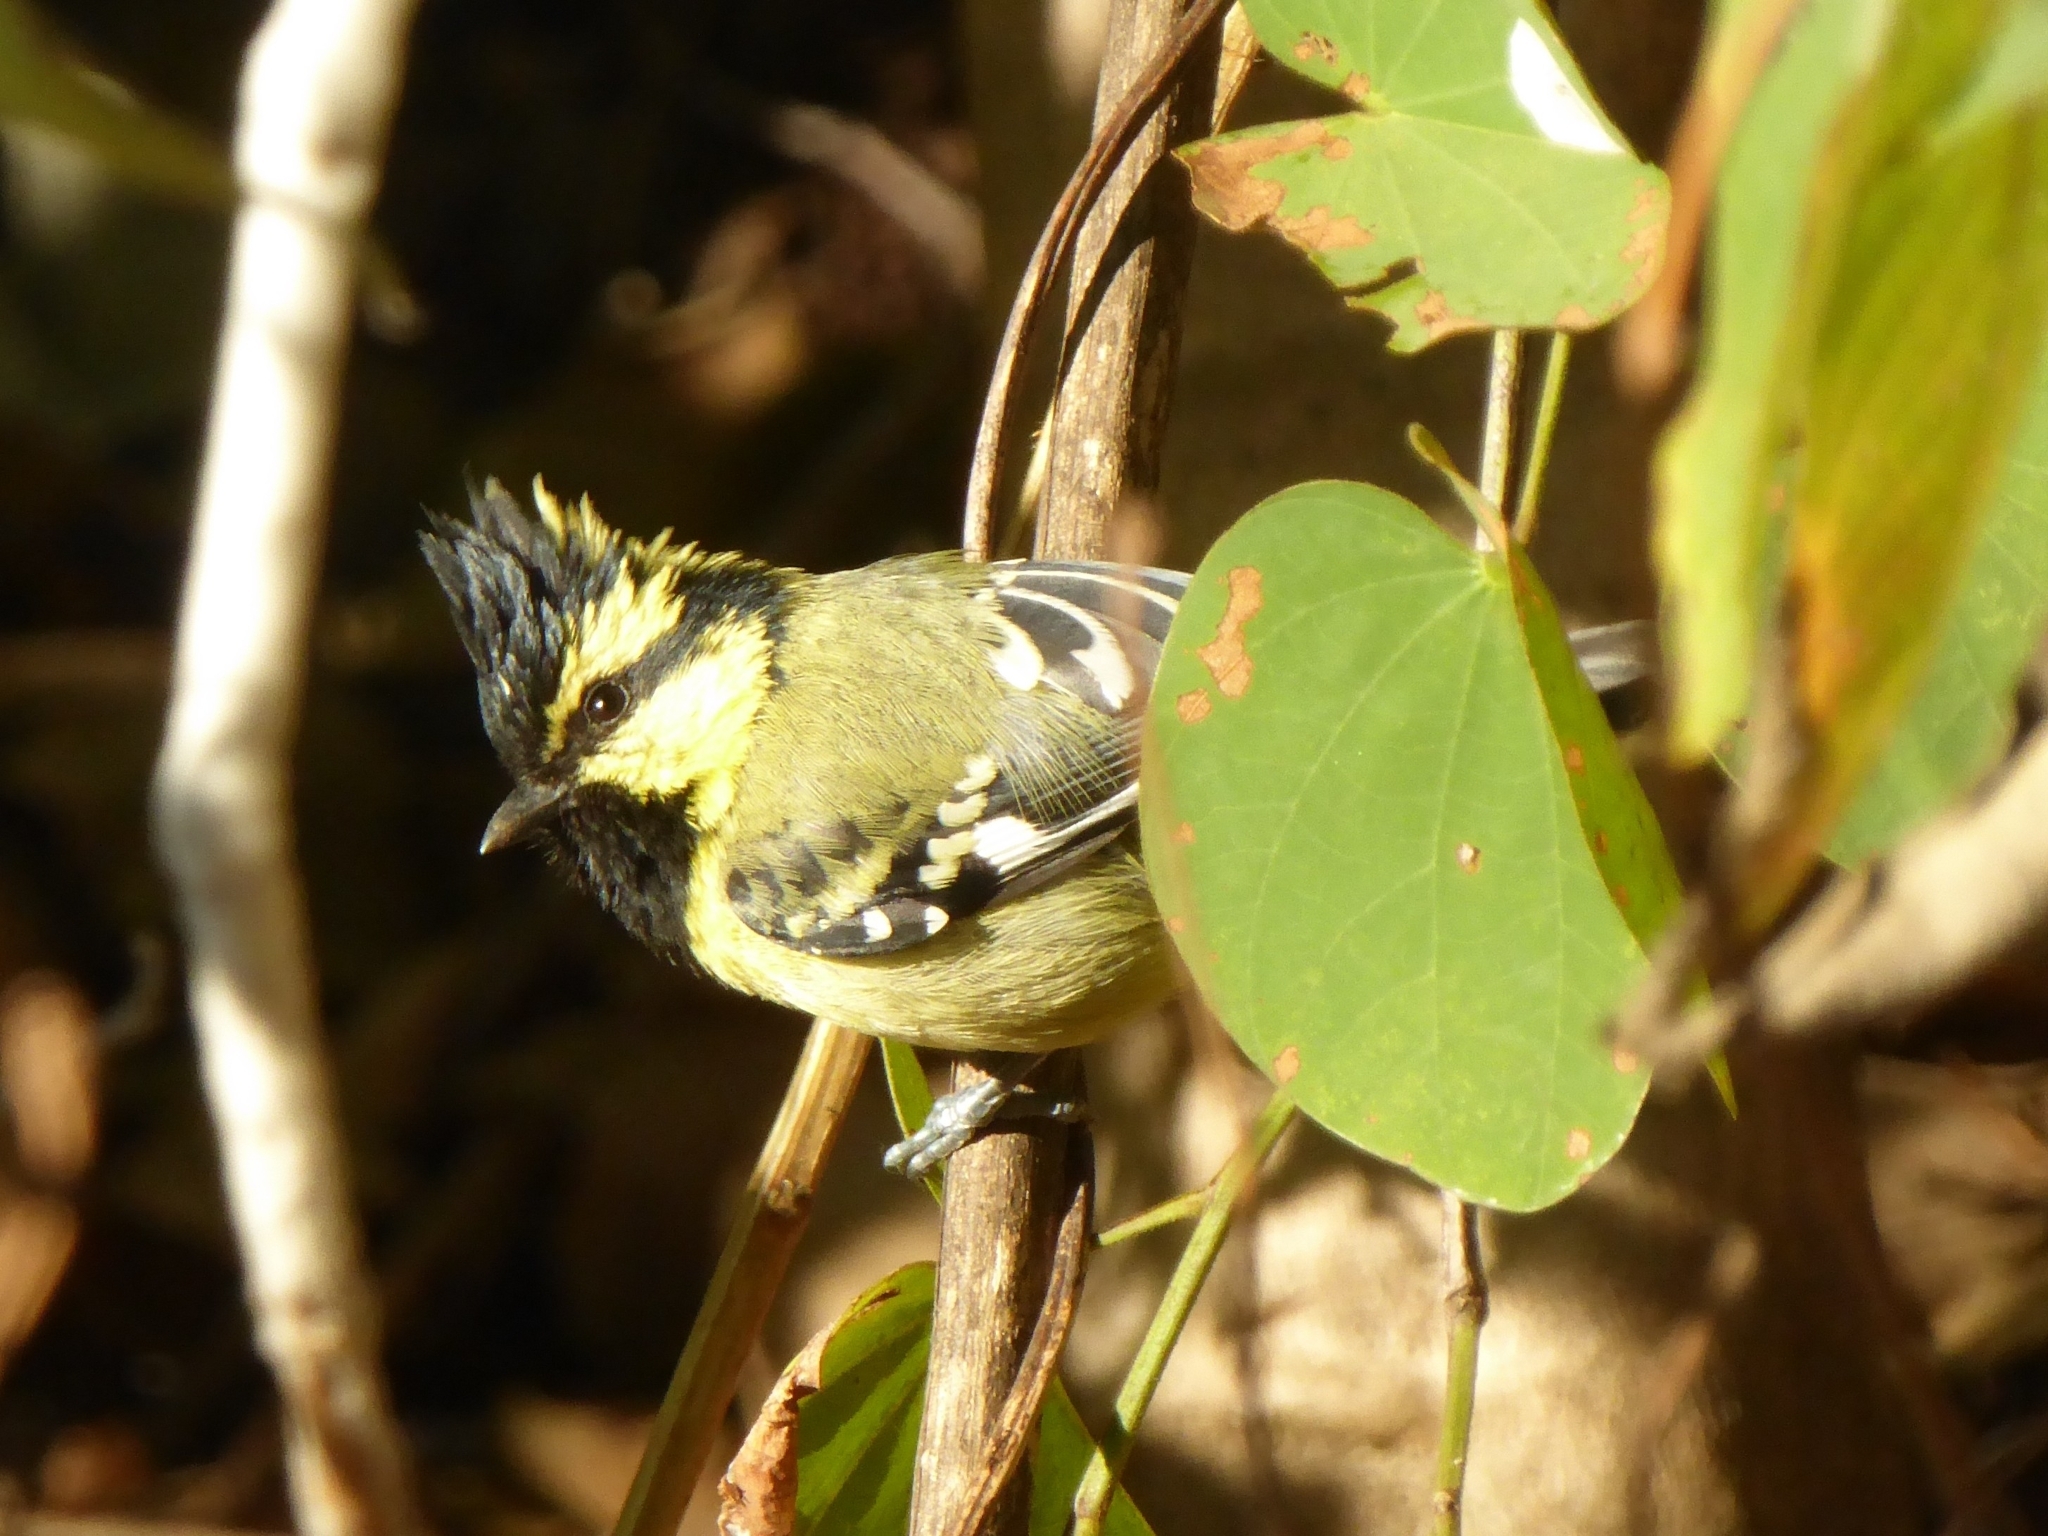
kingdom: Animalia
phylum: Chordata
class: Aves
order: Passeriformes
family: Paridae
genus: Parus
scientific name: Parus xanthogenys
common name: Black-lored tit
